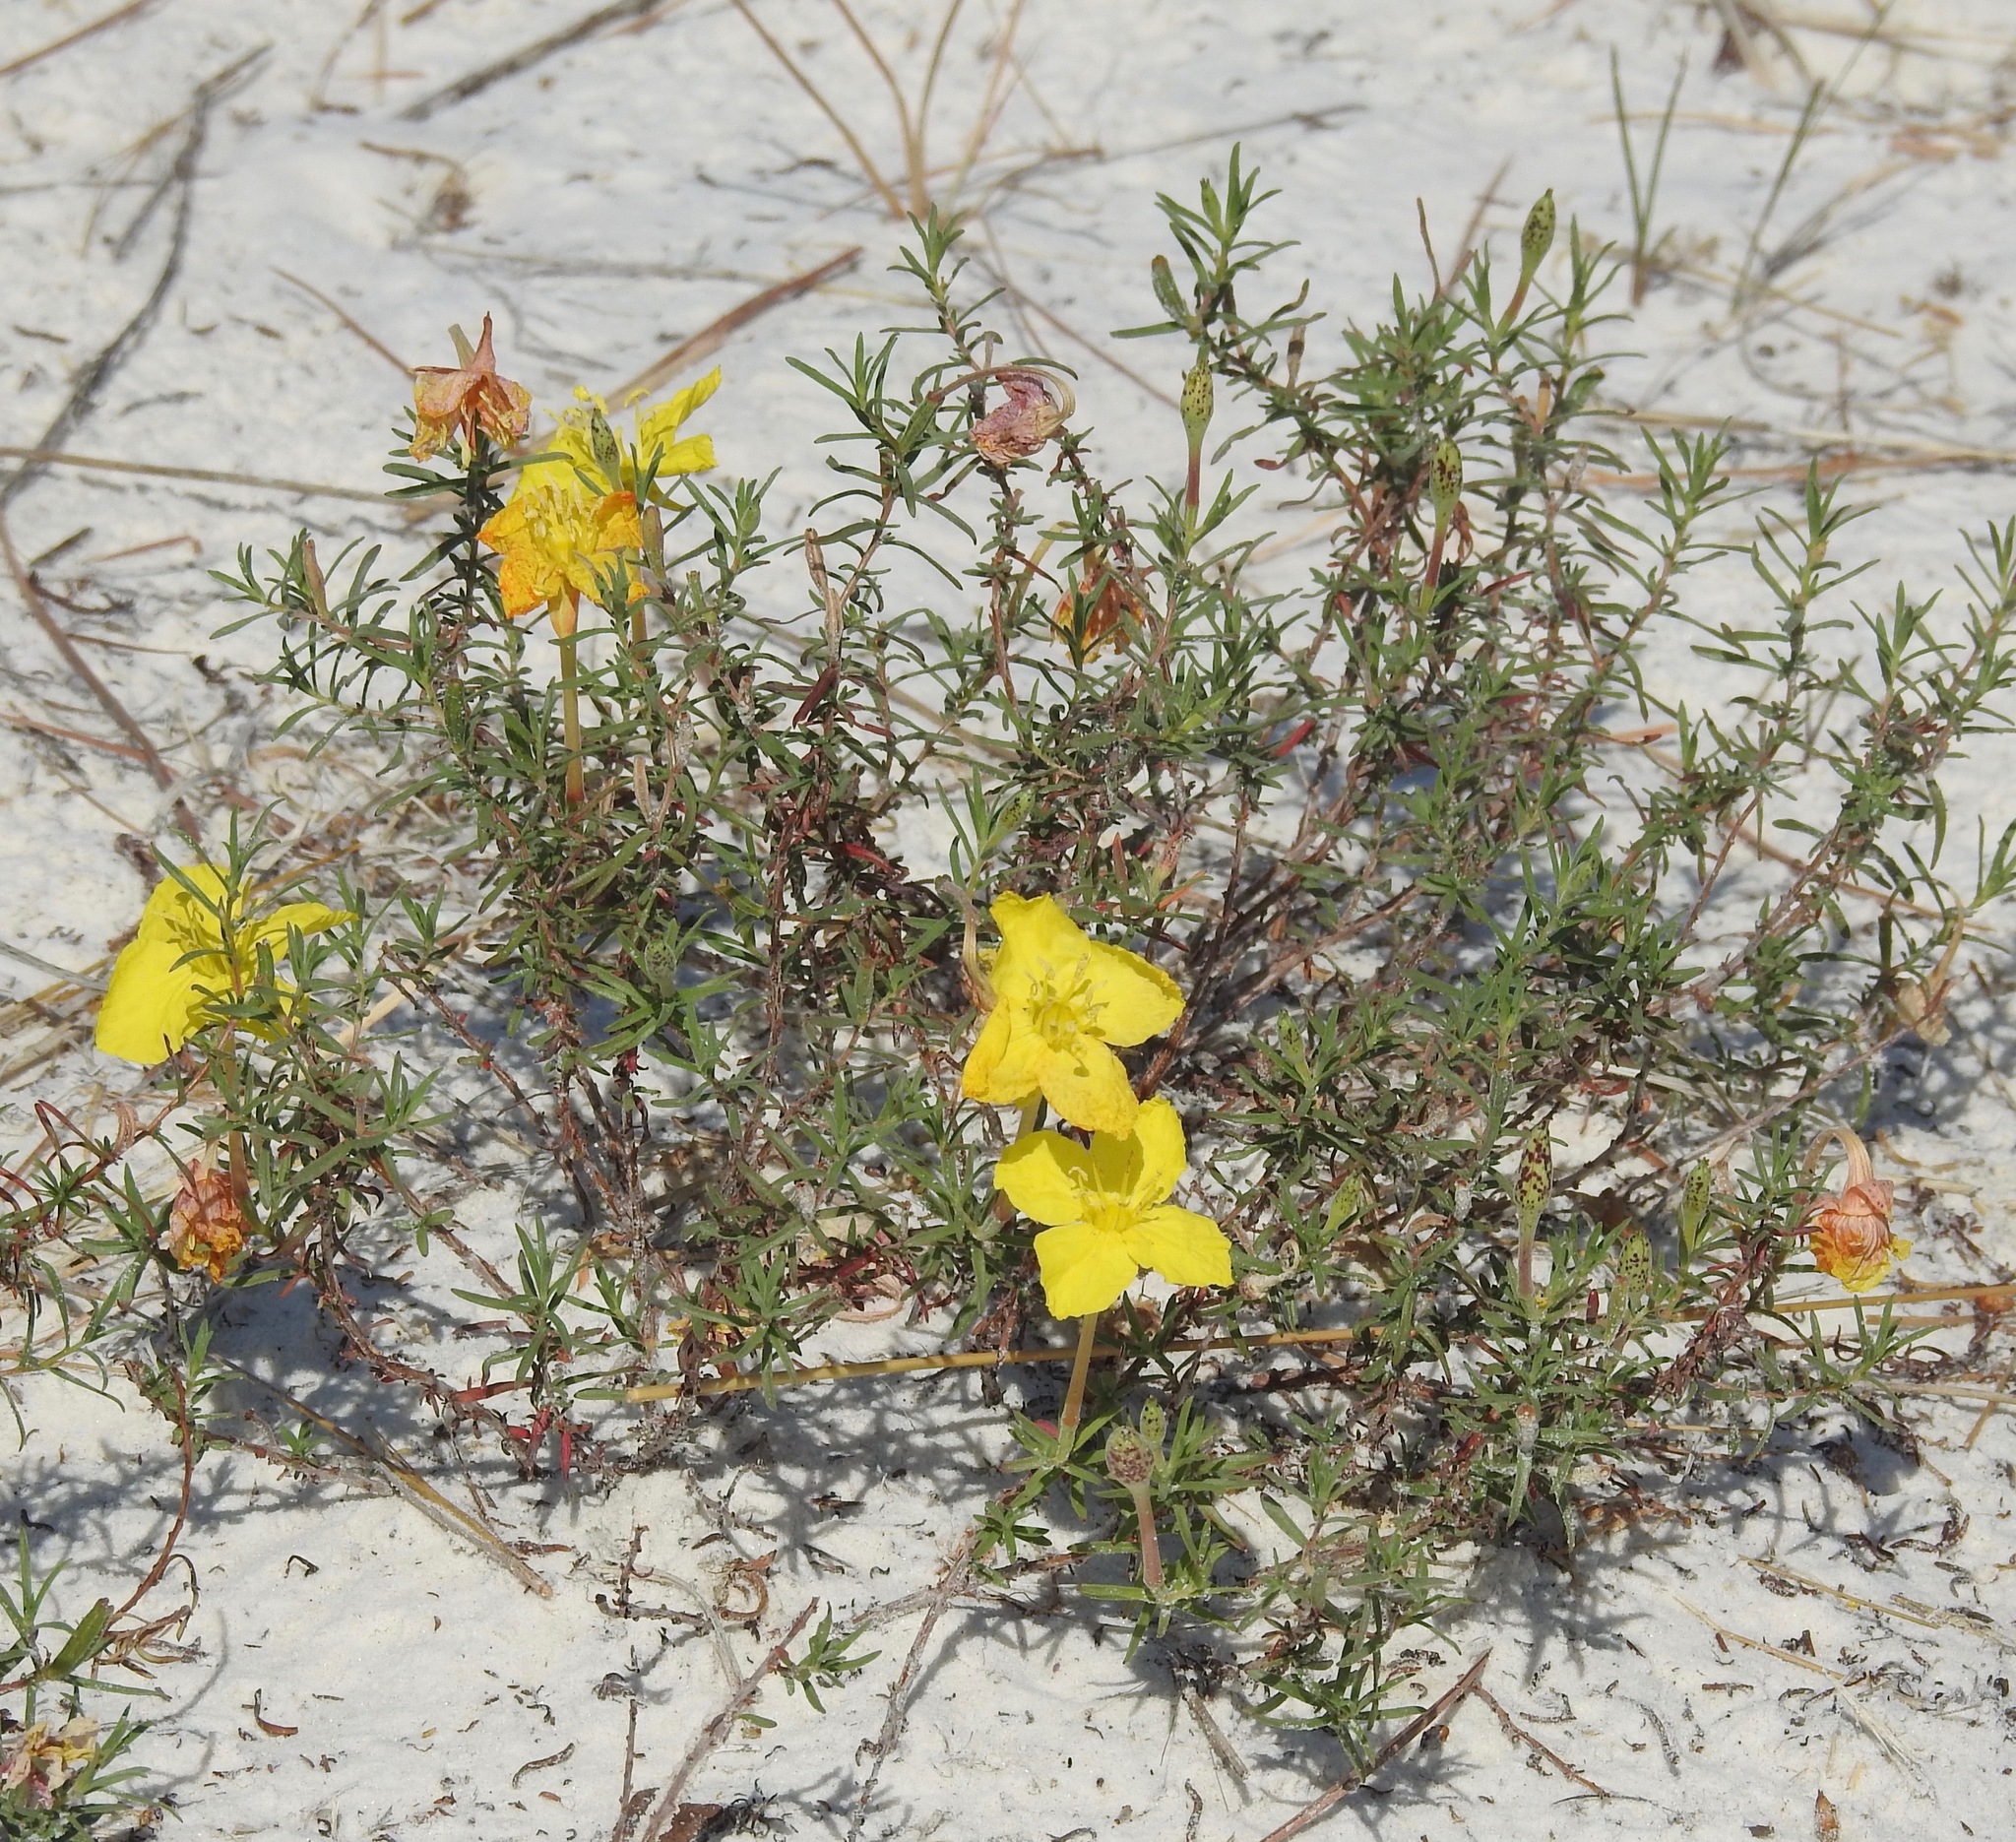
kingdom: Plantae
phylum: Tracheophyta
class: Magnoliopsida
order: Myrtales
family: Onagraceae
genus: Oenothera
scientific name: Oenothera hartwegii
